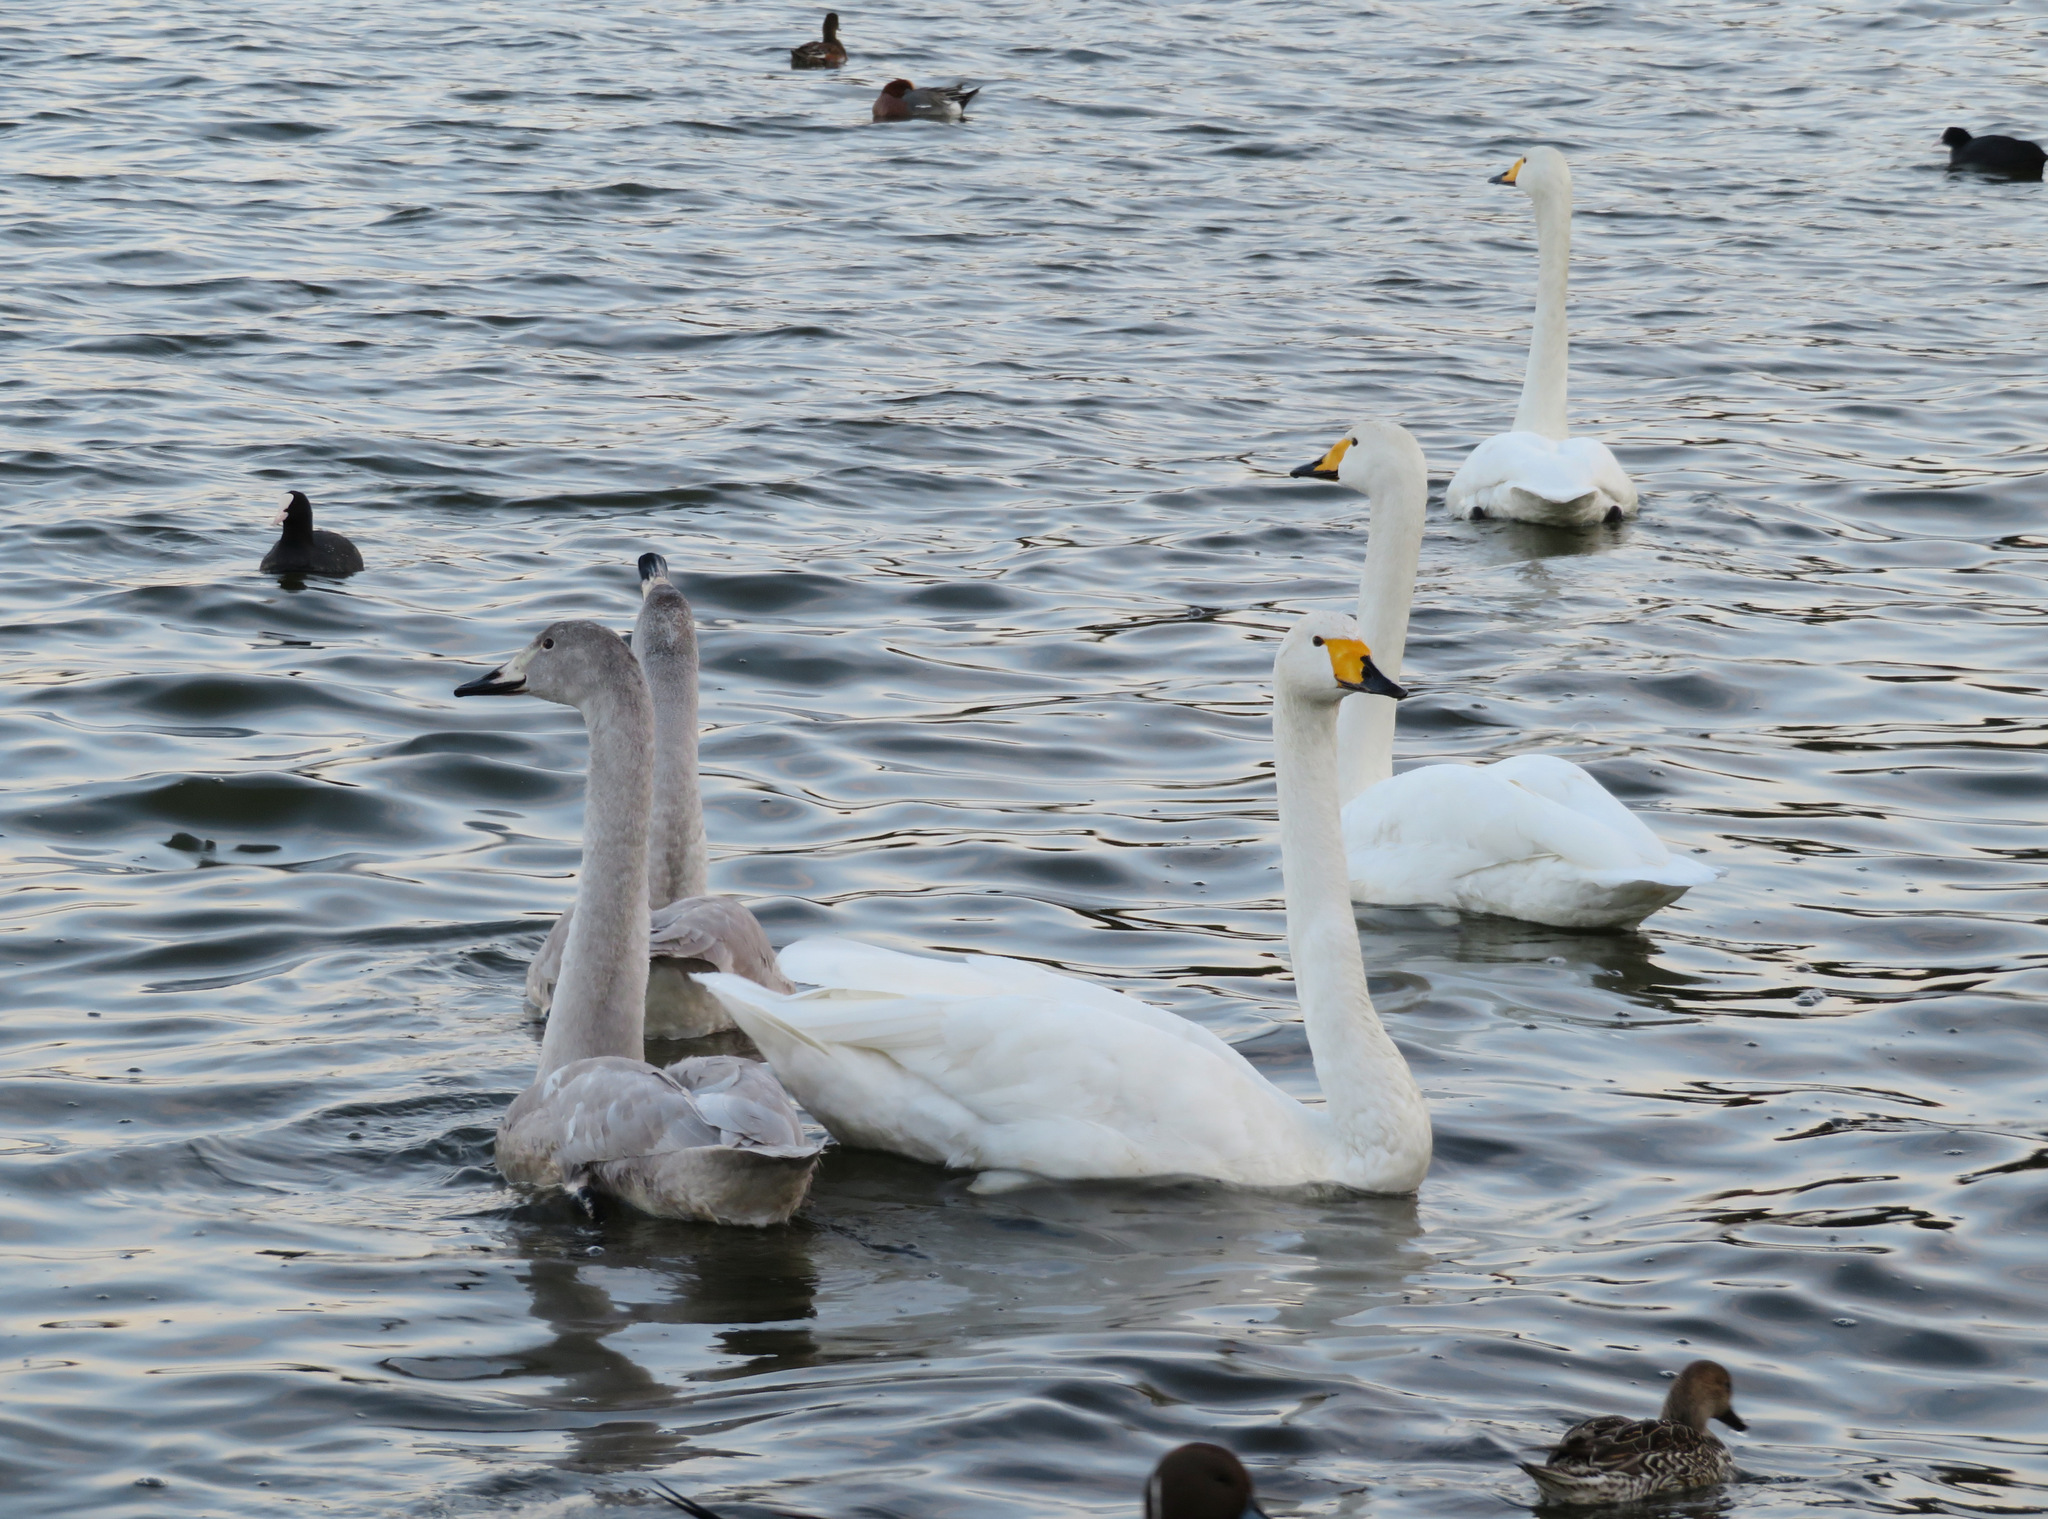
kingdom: Animalia
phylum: Chordata
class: Aves
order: Anseriformes
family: Anatidae
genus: Cygnus
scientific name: Cygnus cygnus
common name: Whooper swan
